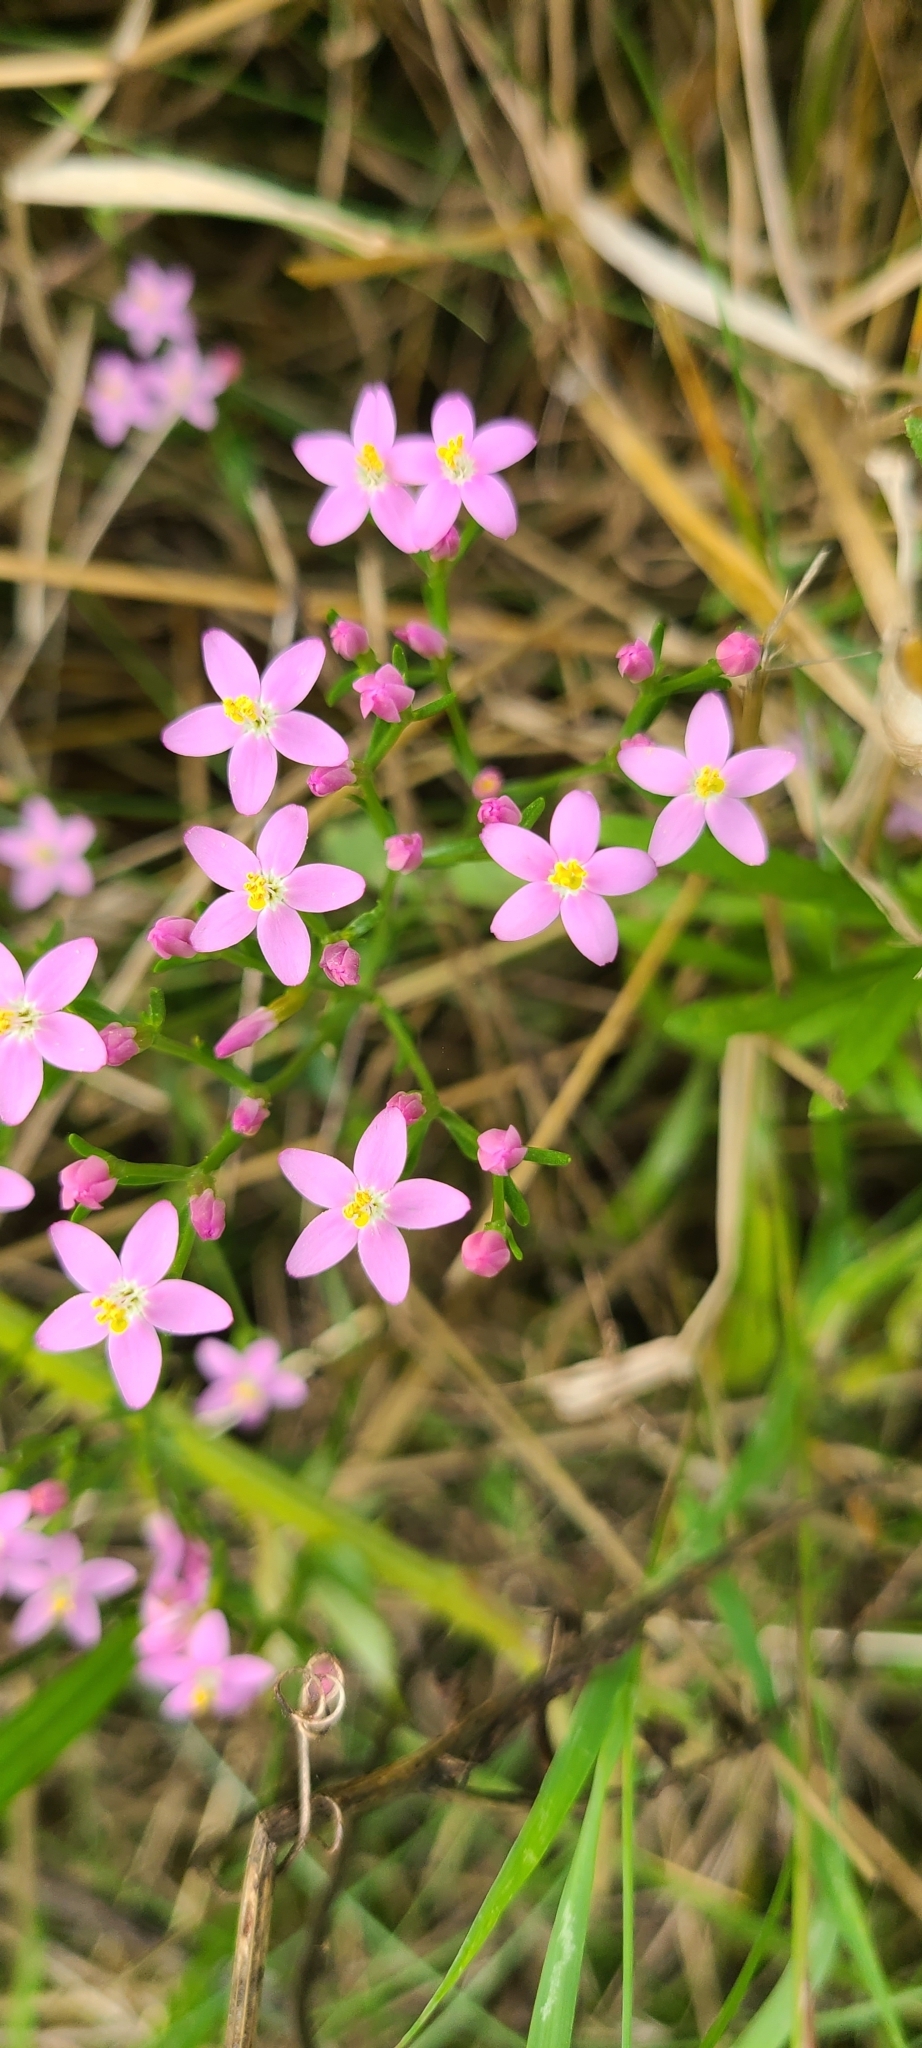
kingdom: Plantae
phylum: Tracheophyta
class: Magnoliopsida
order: Gentianales
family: Gentianaceae
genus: Centaurium
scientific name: Centaurium erythraea
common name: Common centaury
